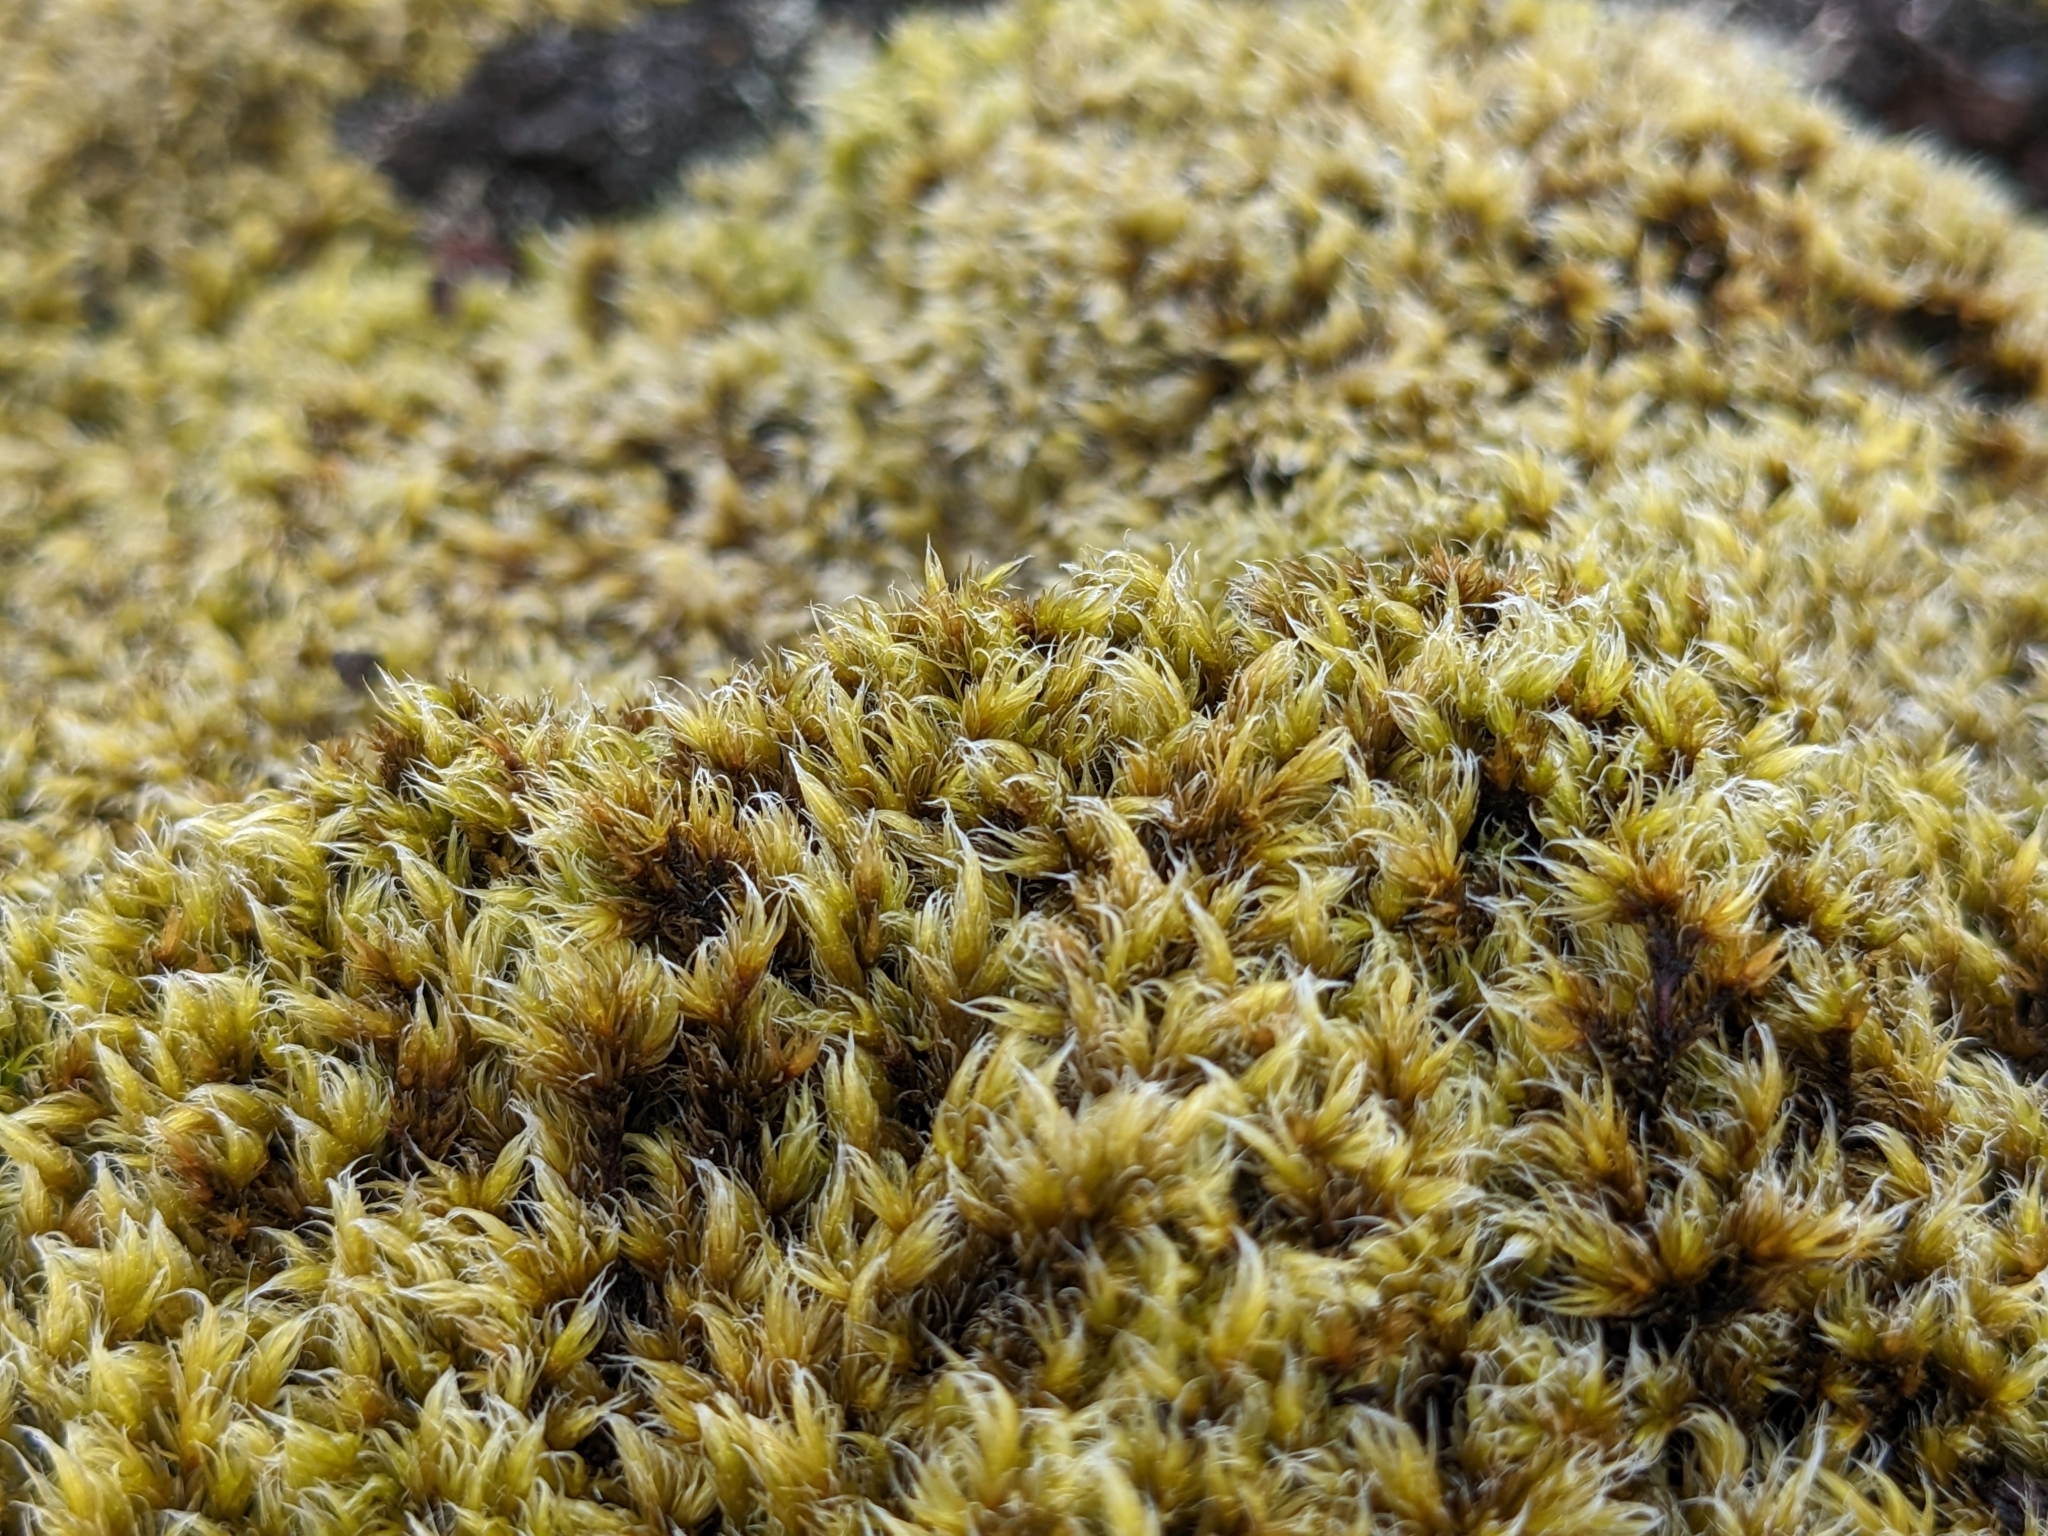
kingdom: Plantae
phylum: Bryophyta
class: Bryopsida
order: Grimmiales
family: Grimmiaceae
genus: Racomitrium
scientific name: Racomitrium lanuginosum
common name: Hoary rock moss
